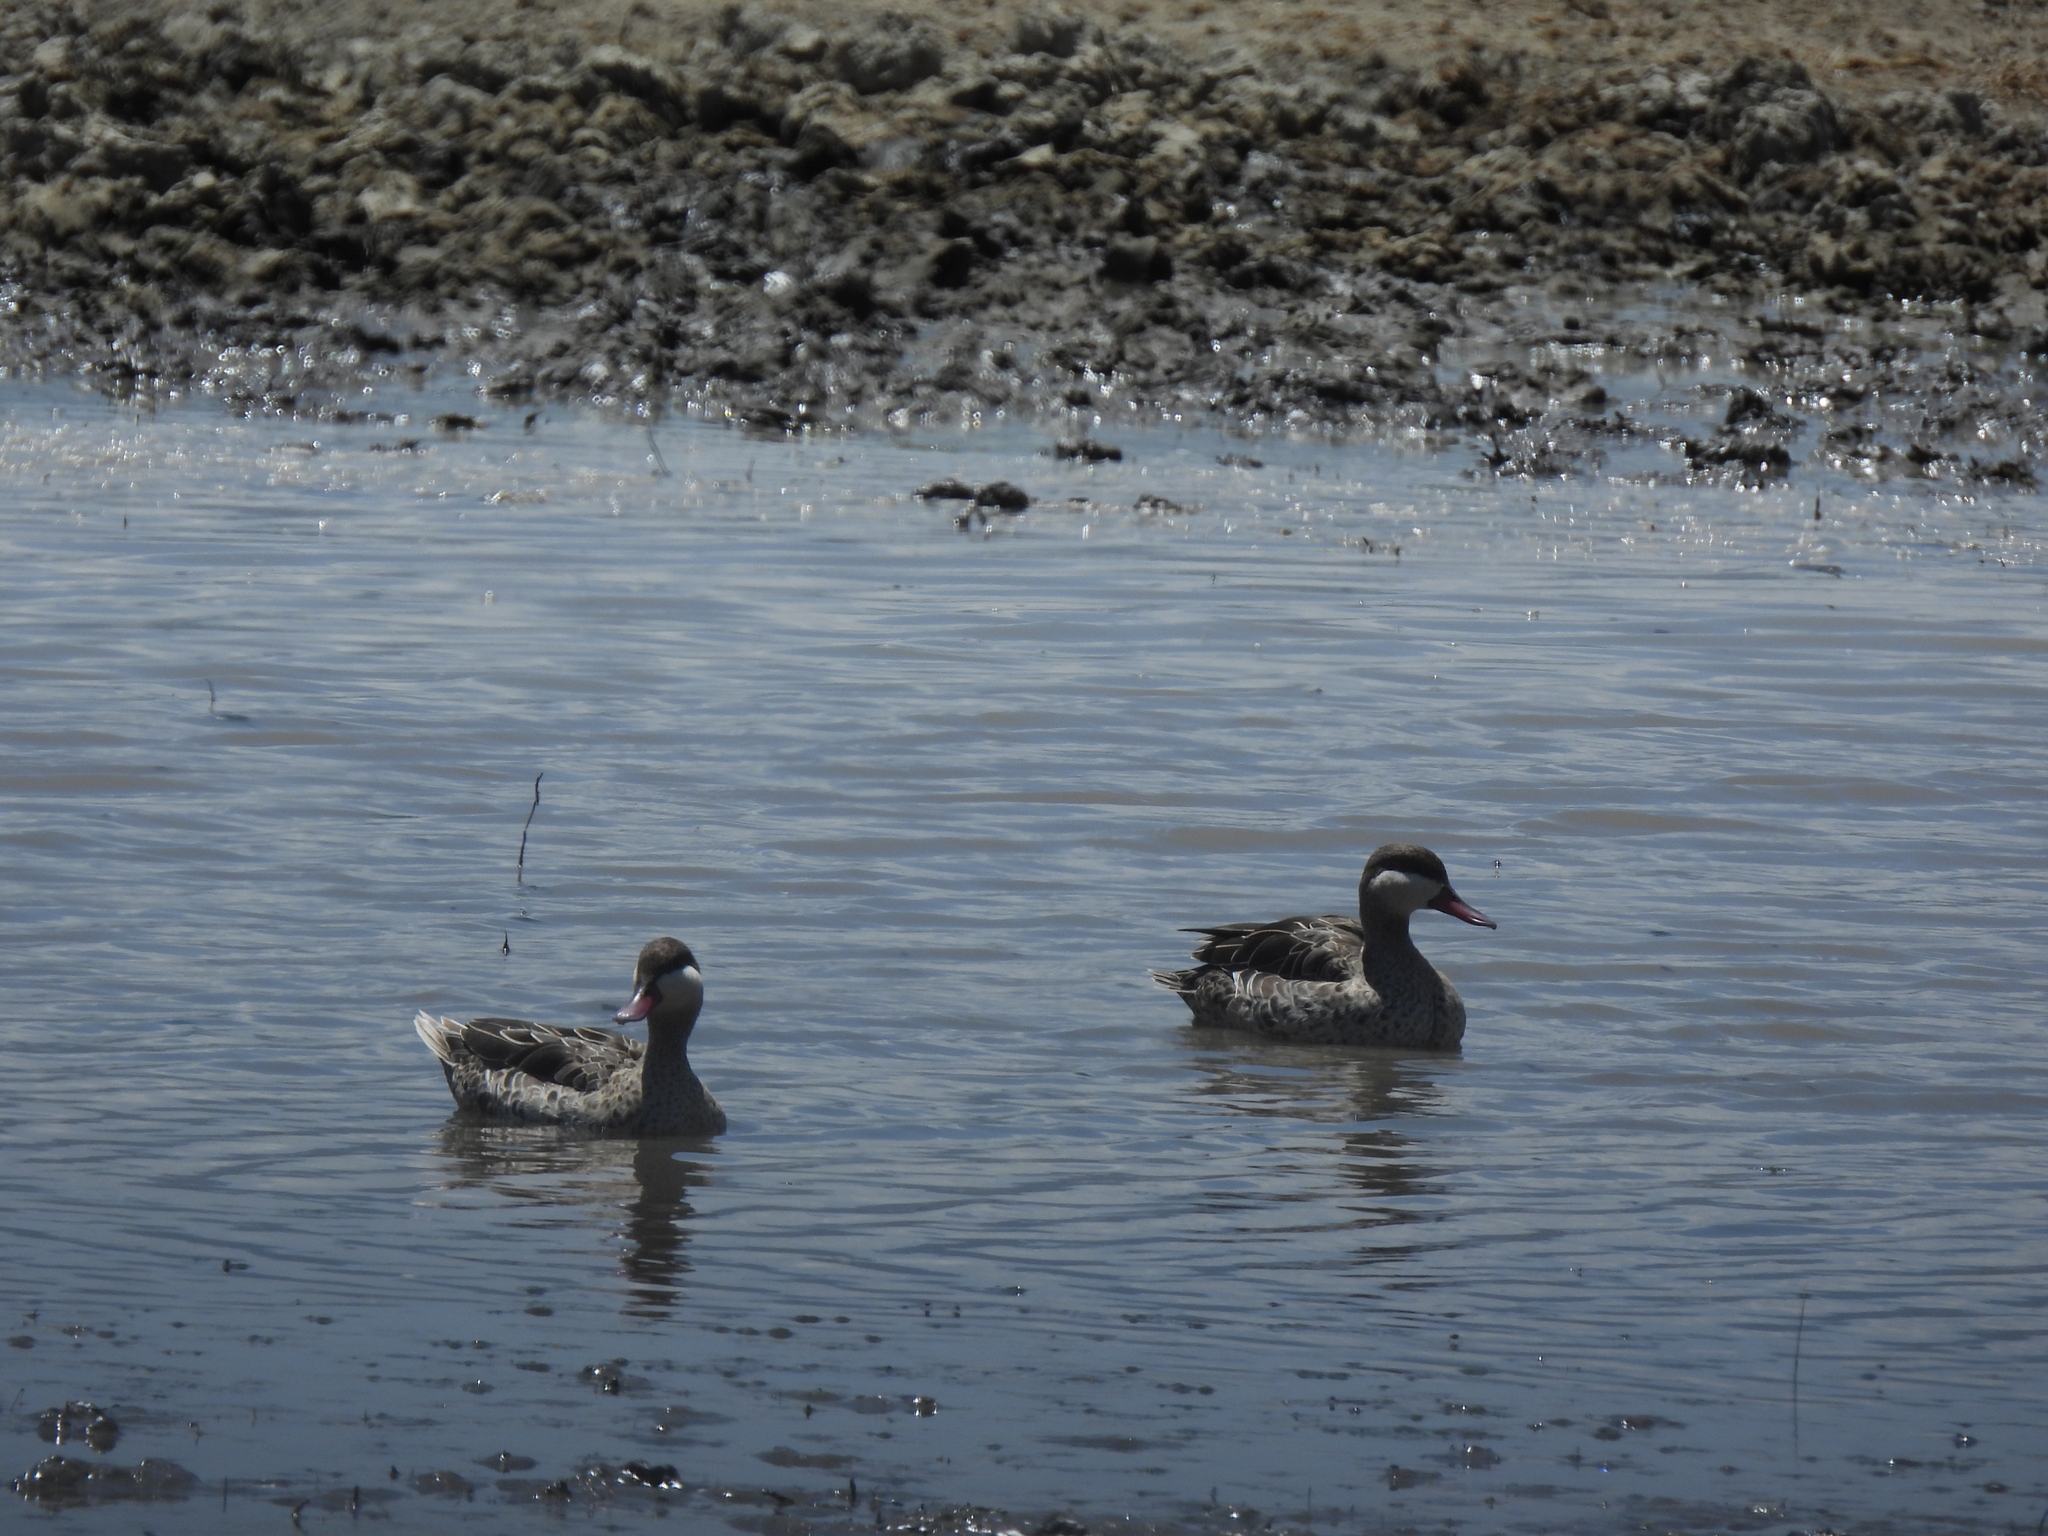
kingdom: Animalia
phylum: Chordata
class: Aves
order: Anseriformes
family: Anatidae
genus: Anas
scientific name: Anas erythrorhyncha
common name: Red-billed teal
